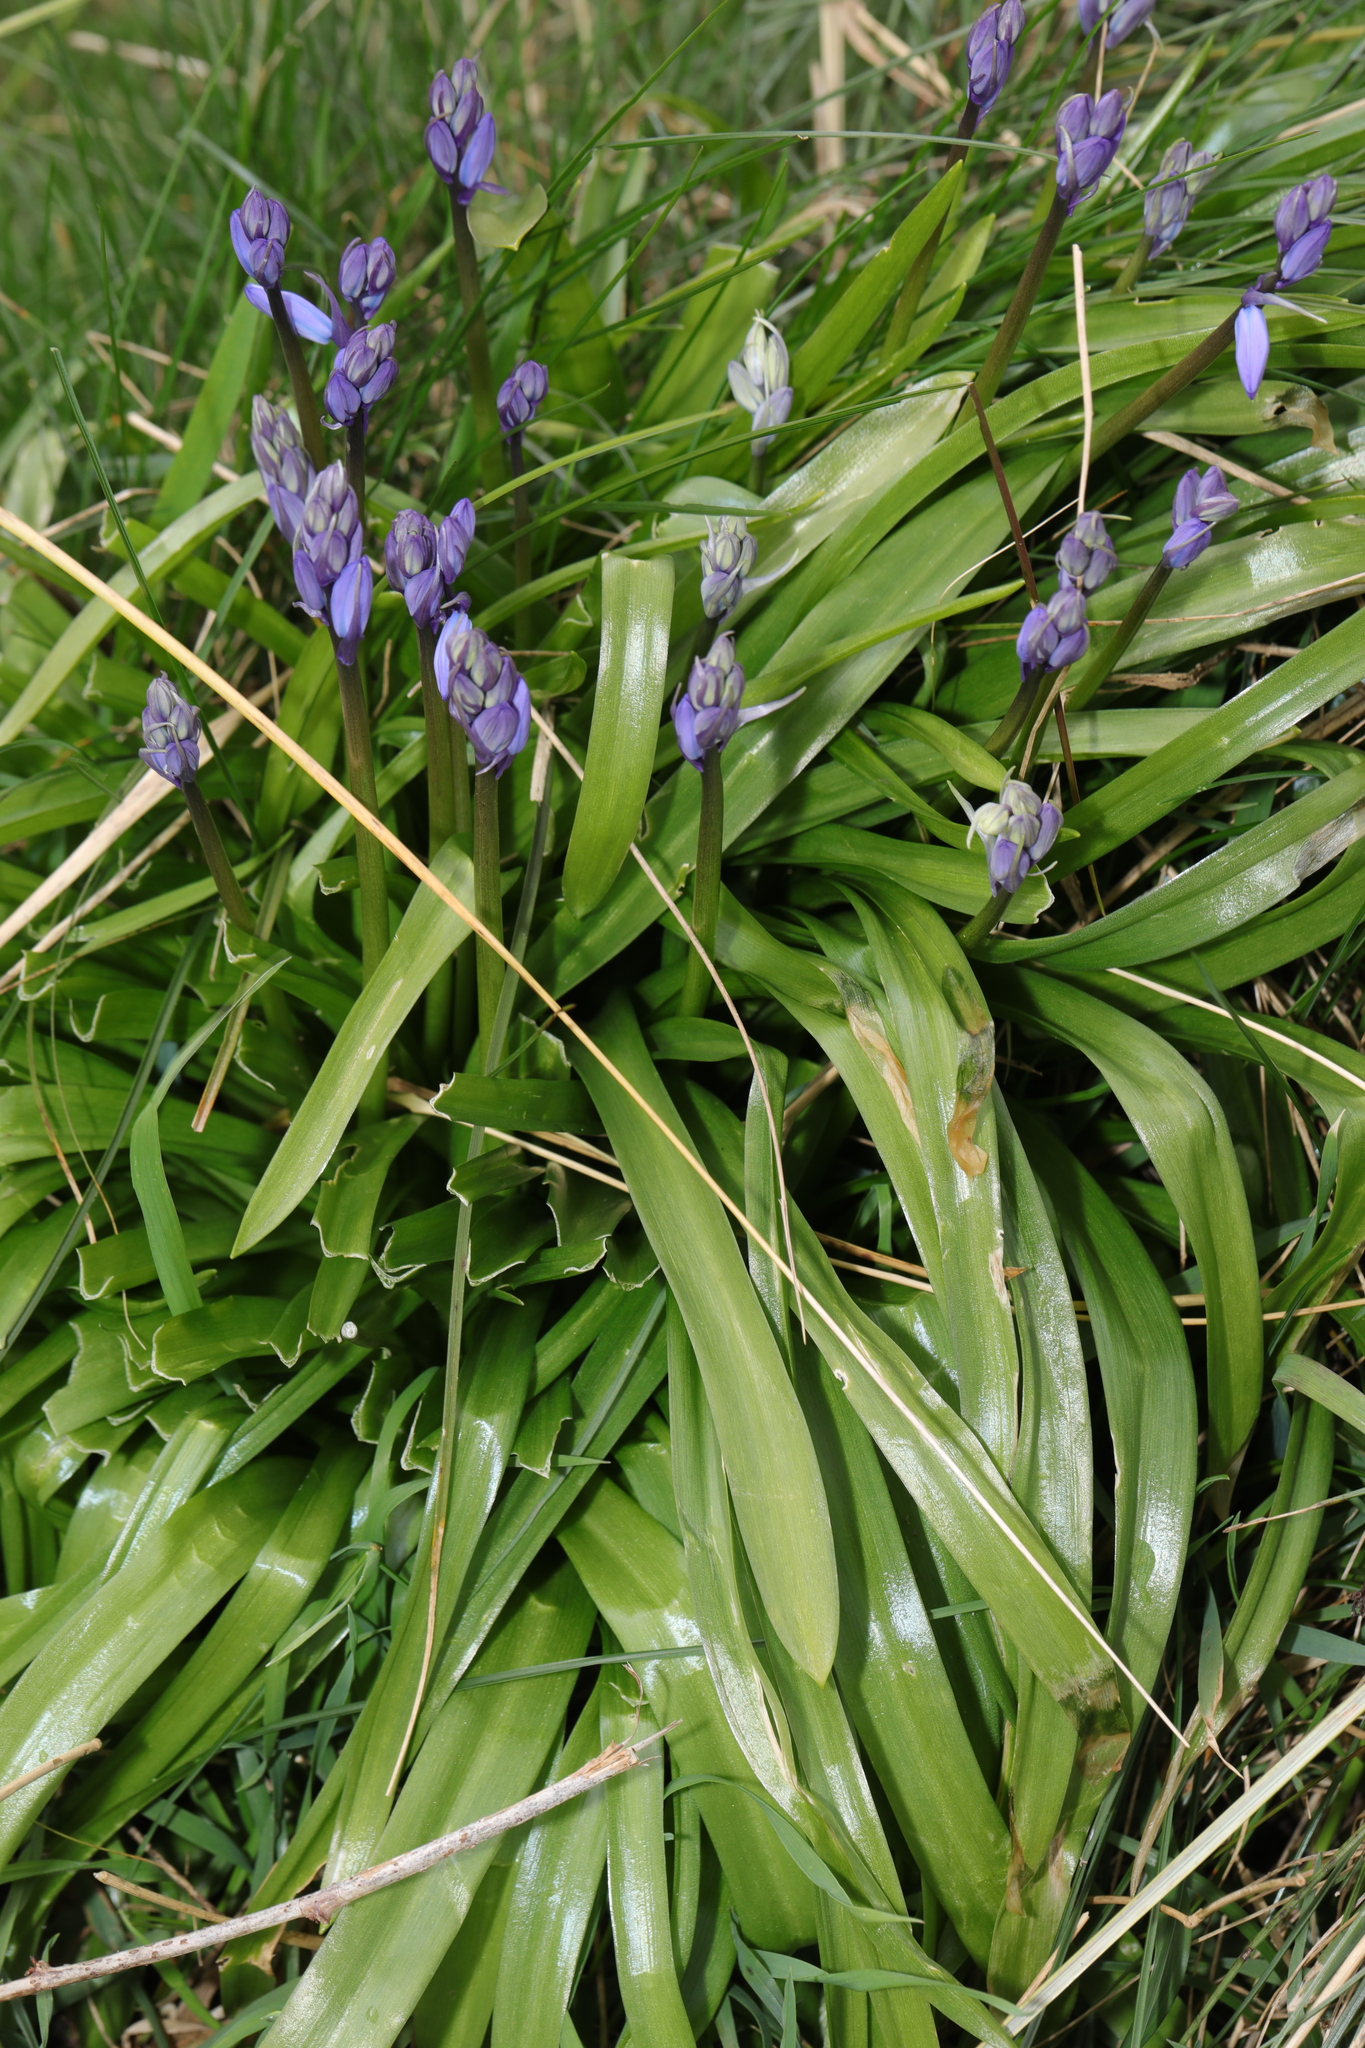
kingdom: Plantae
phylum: Tracheophyta
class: Liliopsida
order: Asparagales
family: Asparagaceae
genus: Hyacinthoides
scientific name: Hyacinthoides massartiana
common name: Hyacinthoides
